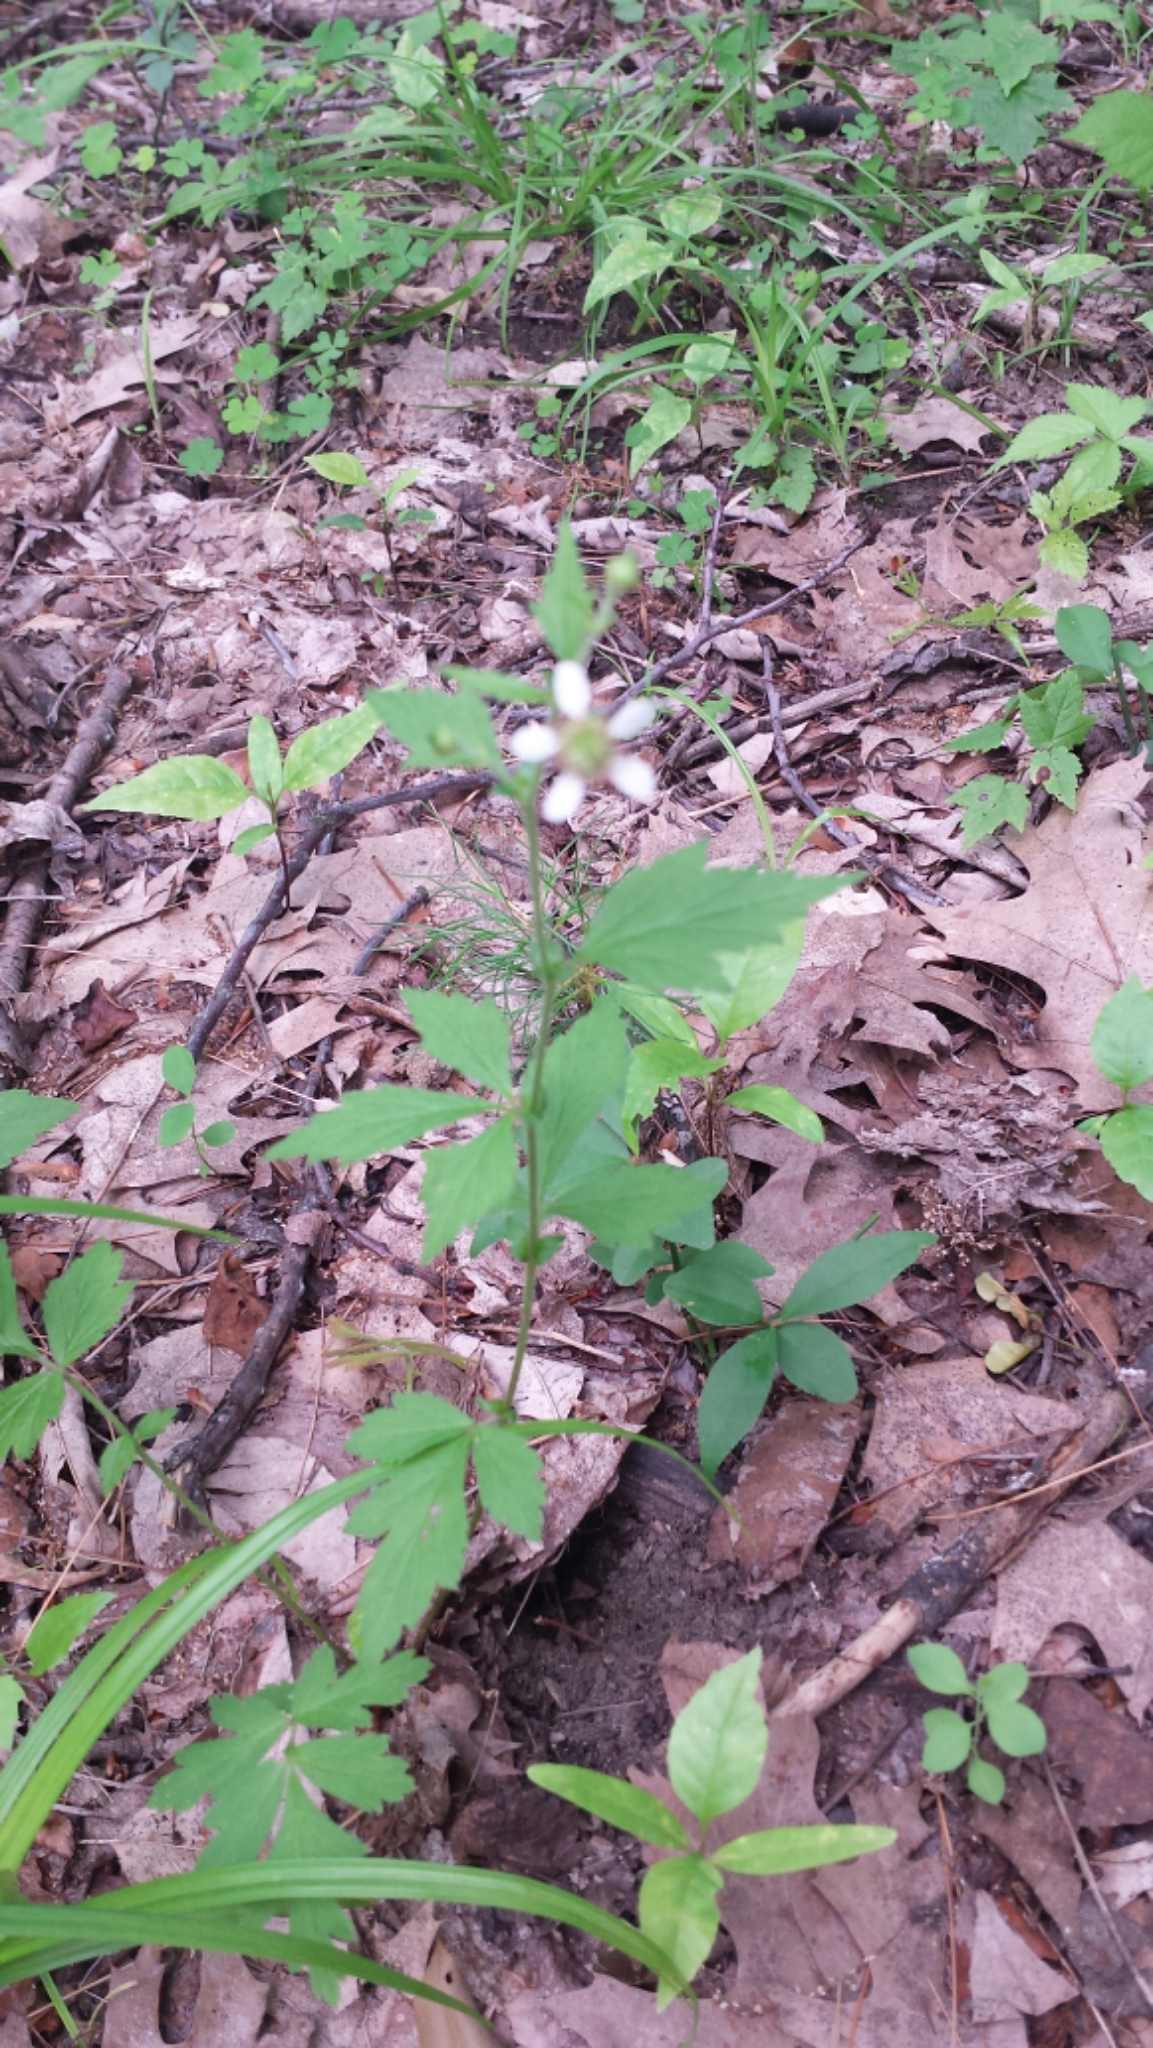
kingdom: Plantae
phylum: Tracheophyta
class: Magnoliopsida
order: Rosales
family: Rosaceae
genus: Geum
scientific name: Geum canadense
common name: White avens
